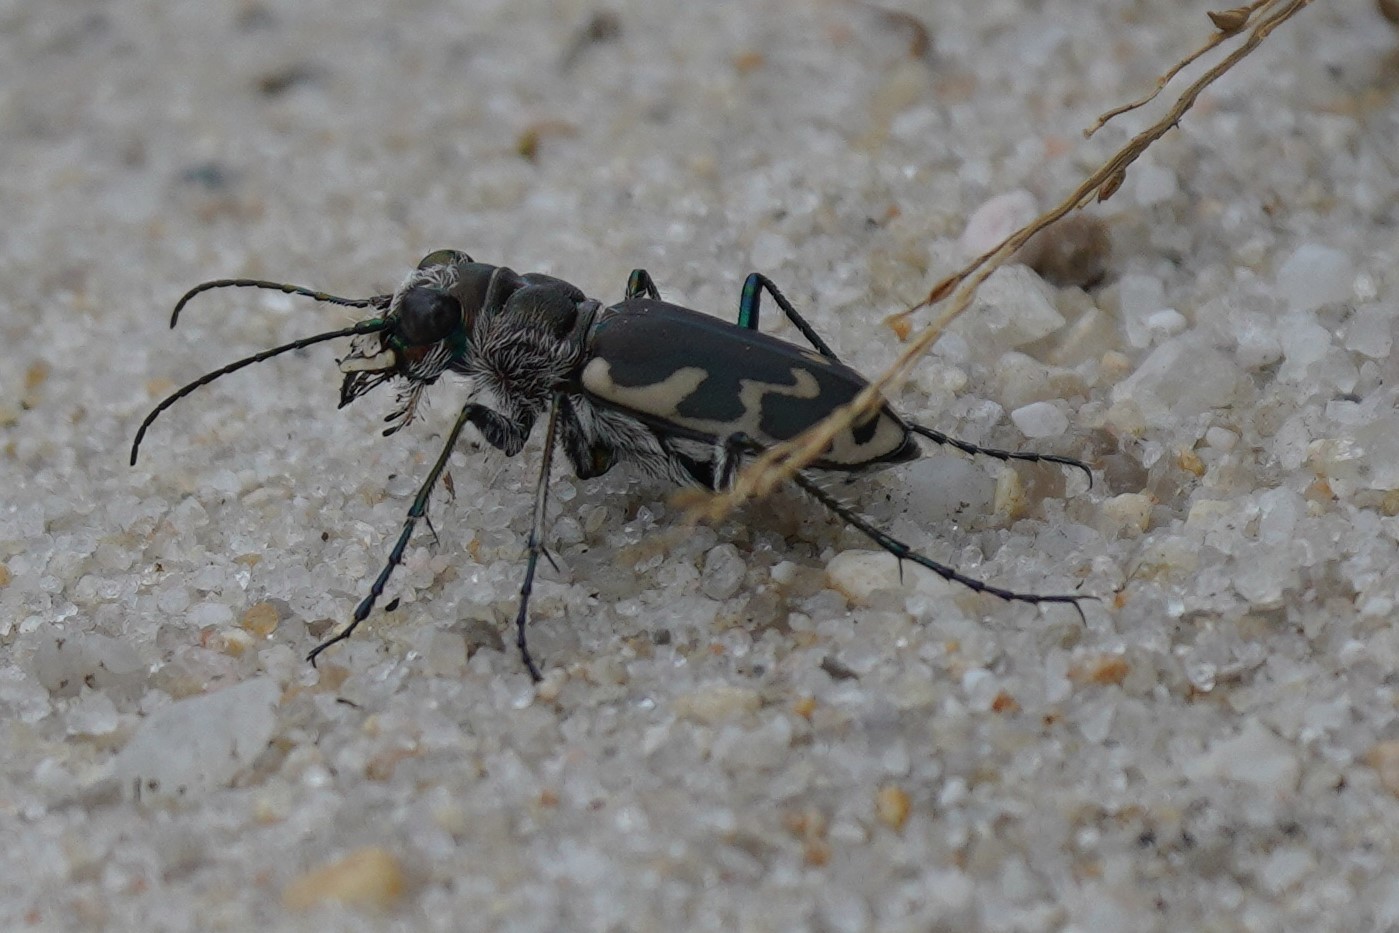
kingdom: Animalia
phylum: Arthropoda
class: Insecta
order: Coleoptera
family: Carabidae
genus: Cicindela
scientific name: Cicindela formosa
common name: Big sand tiger beetle
